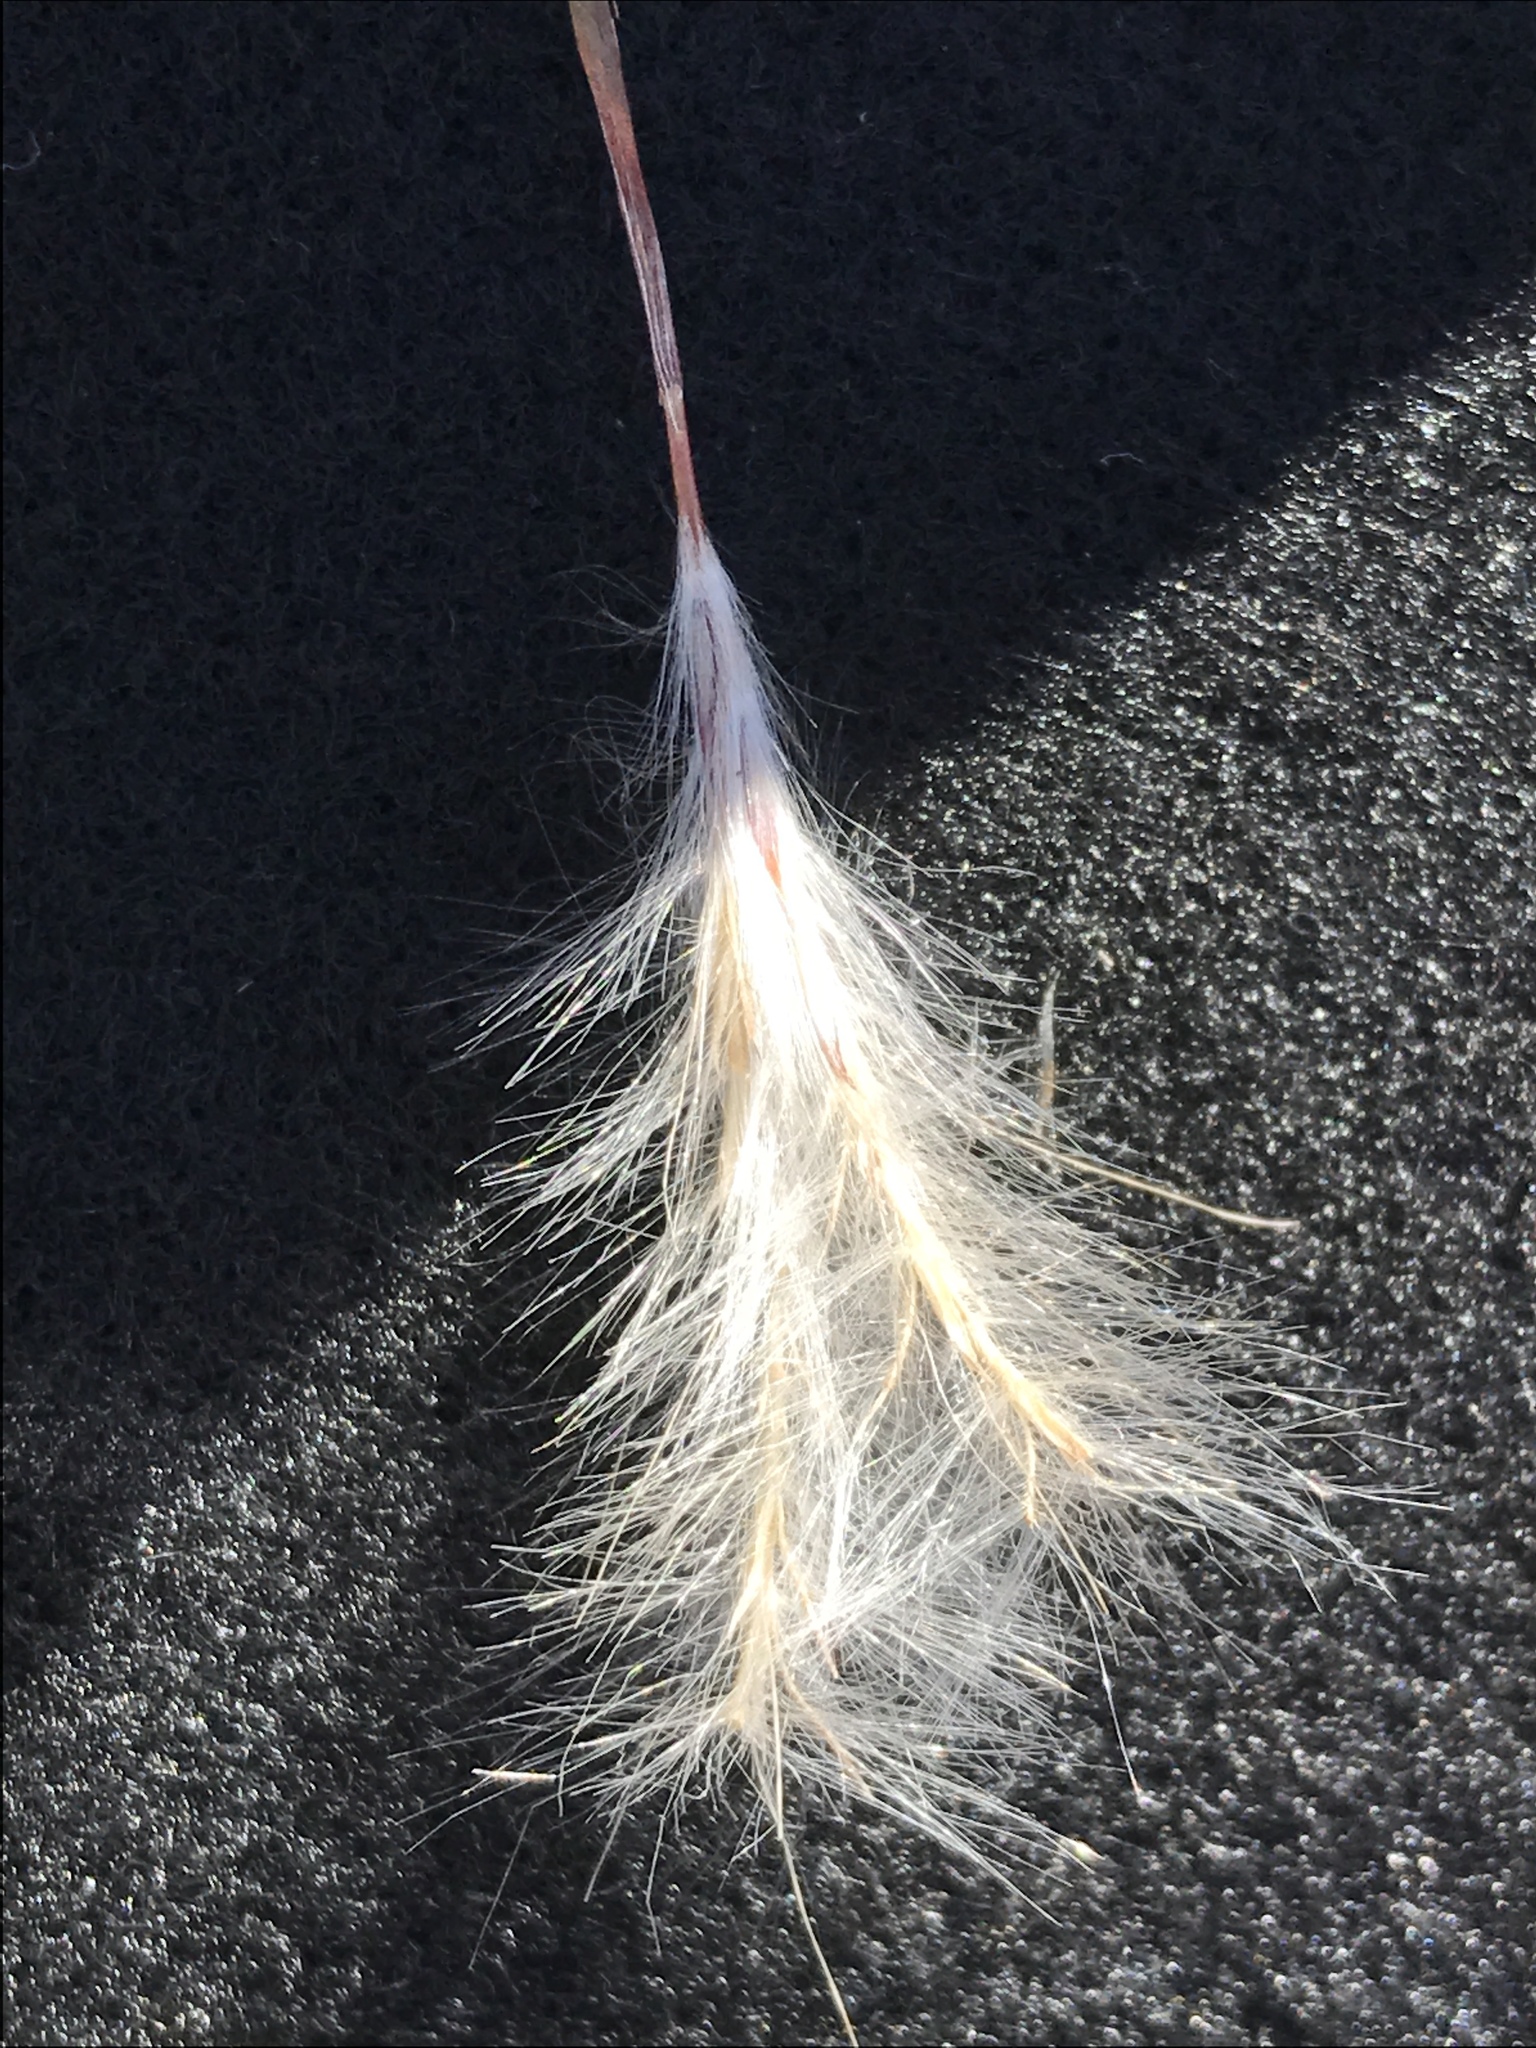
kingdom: Plantae
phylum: Tracheophyta
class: Liliopsida
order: Poales
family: Poaceae
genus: Andropogon
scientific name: Andropogon ternarius
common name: Split bluestem
